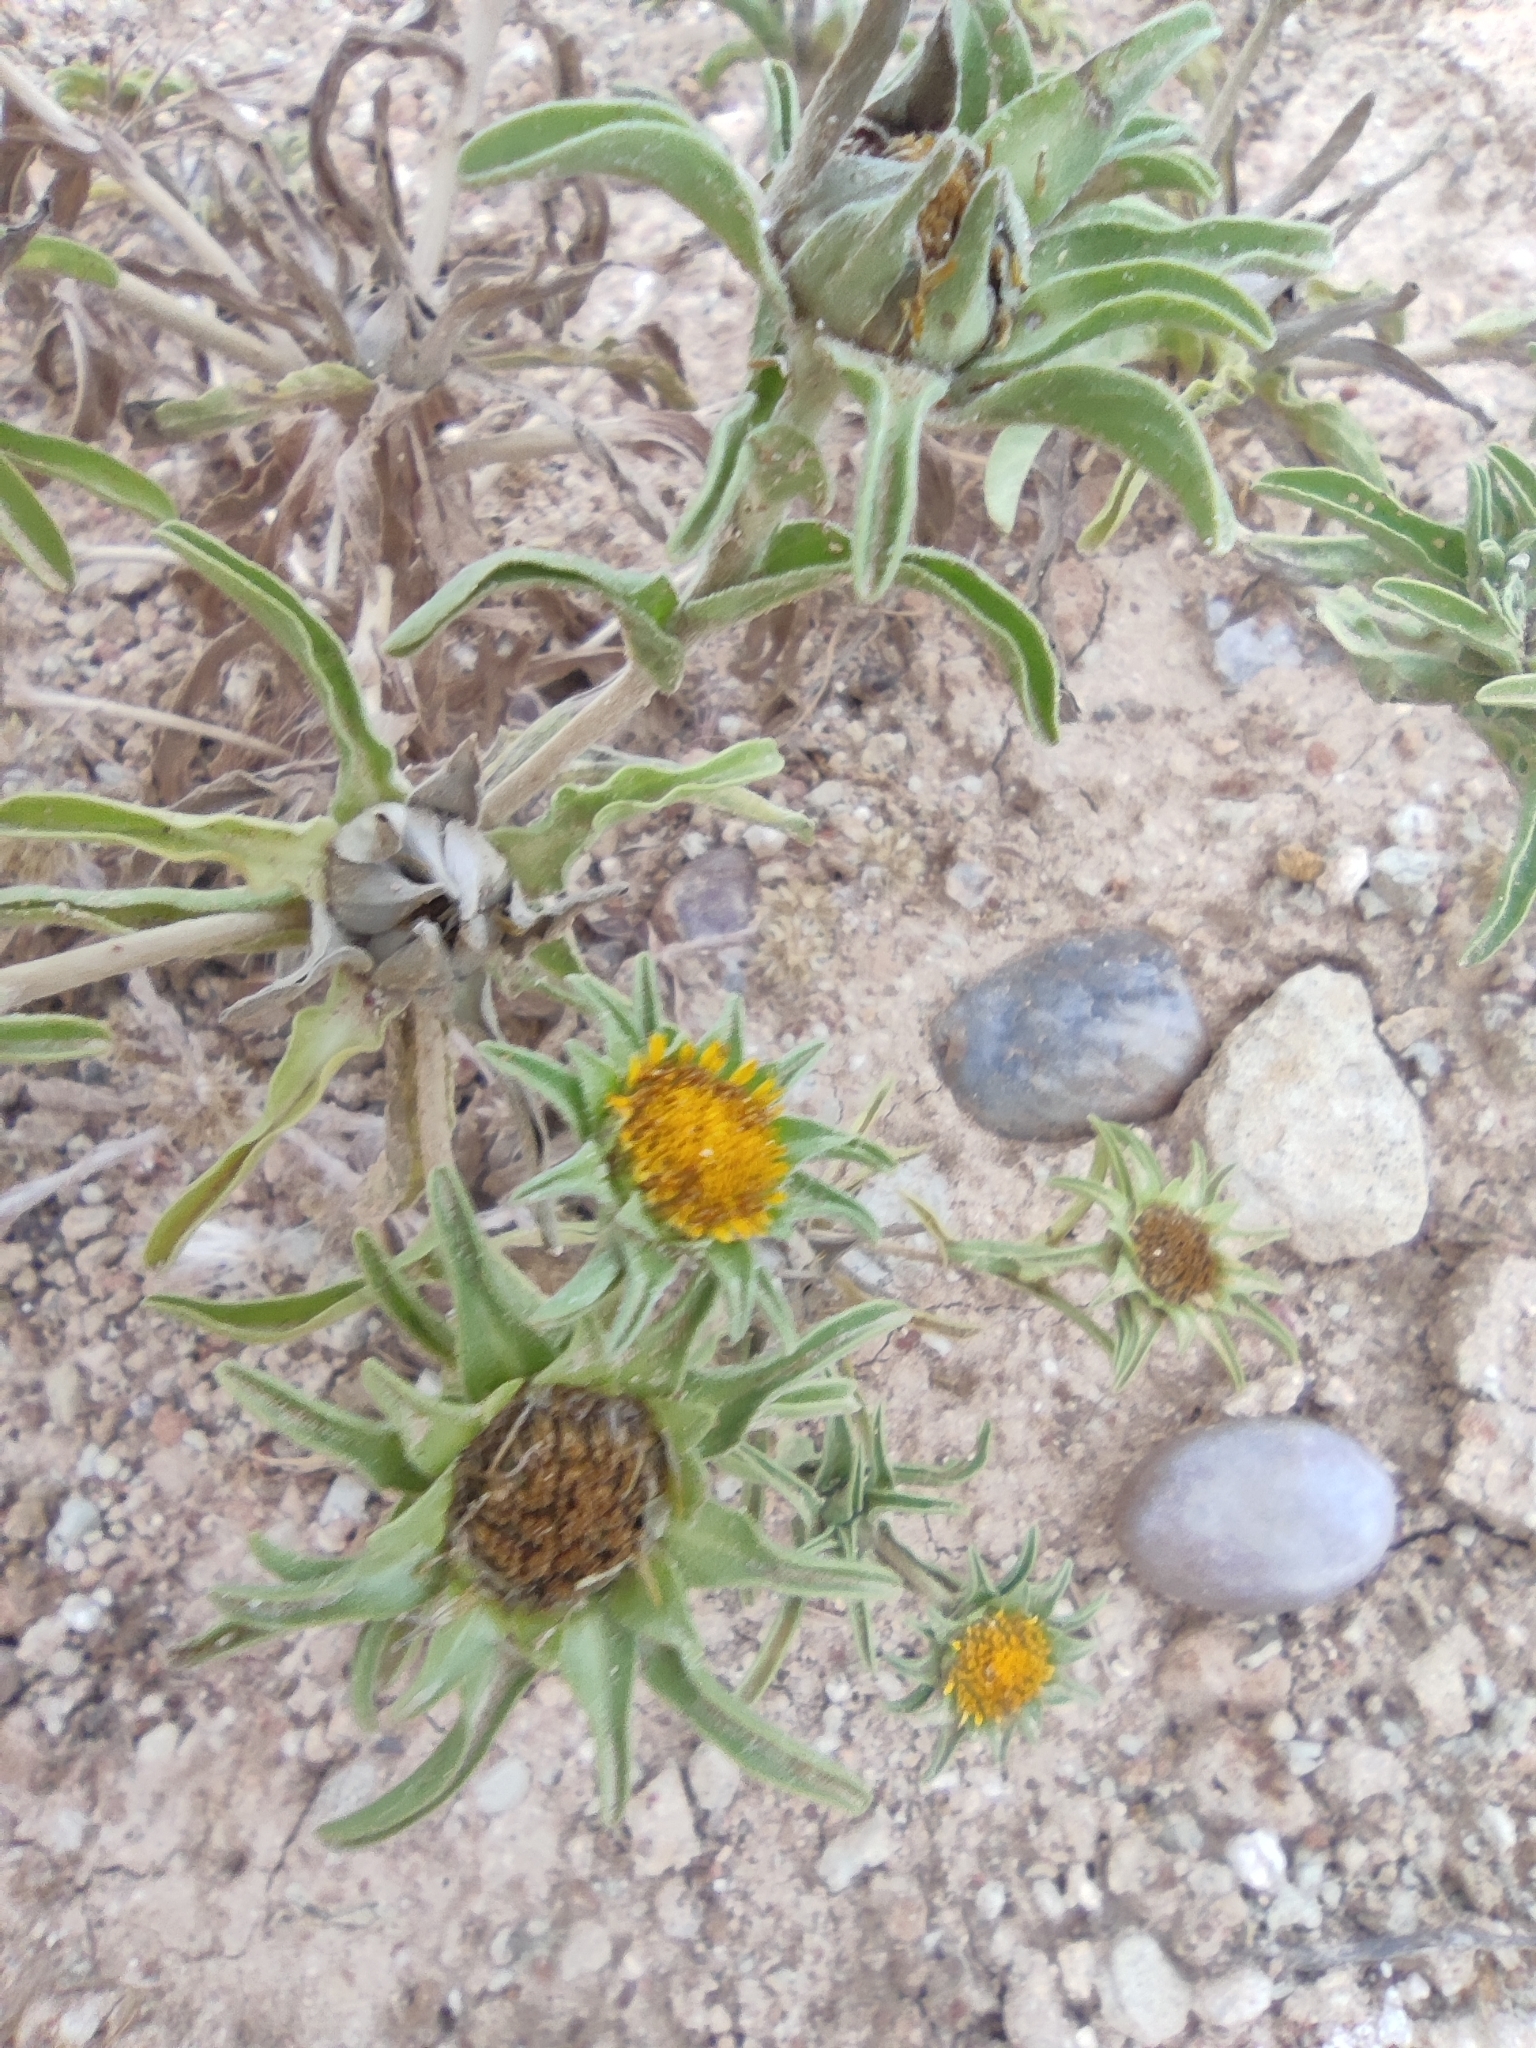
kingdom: Plantae
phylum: Tracheophyta
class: Magnoliopsida
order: Asterales
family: Asteraceae
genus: Asteriscus
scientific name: Asteriscus aquaticus
